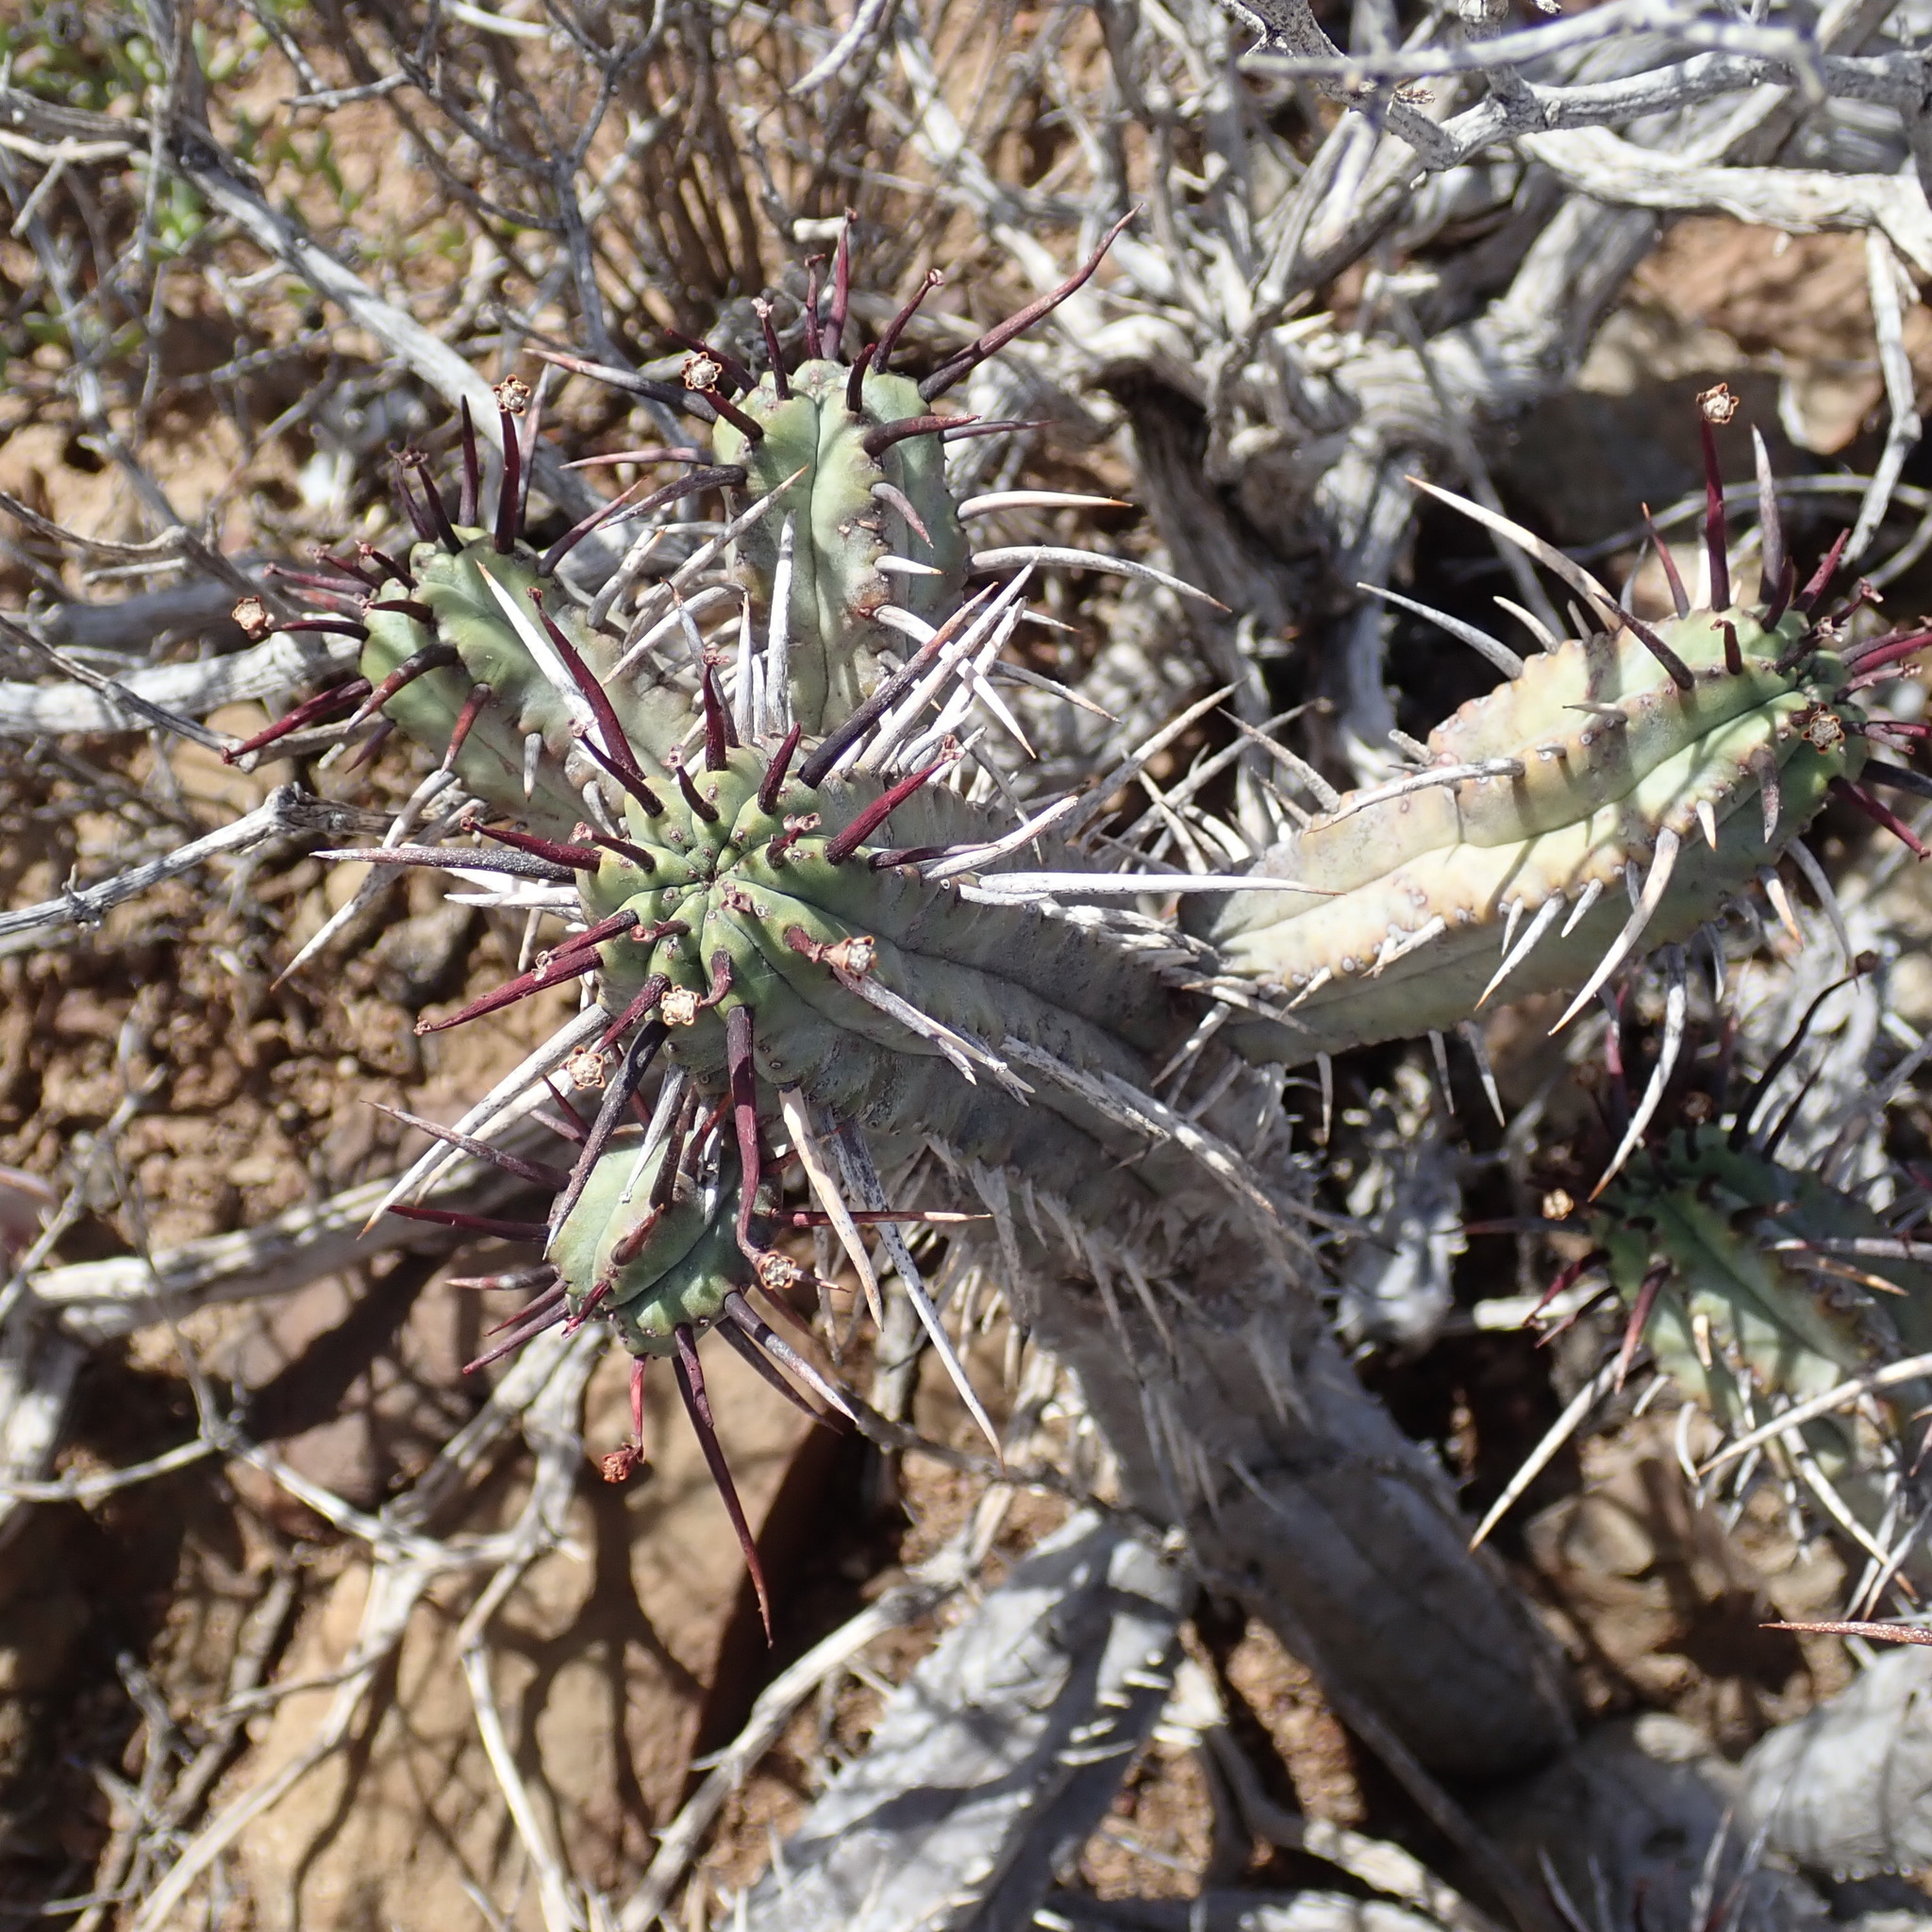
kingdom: Plantae
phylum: Tracheophyta
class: Magnoliopsida
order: Malpighiales
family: Euphorbiaceae
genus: Euphorbia
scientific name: Euphorbia heptagona
